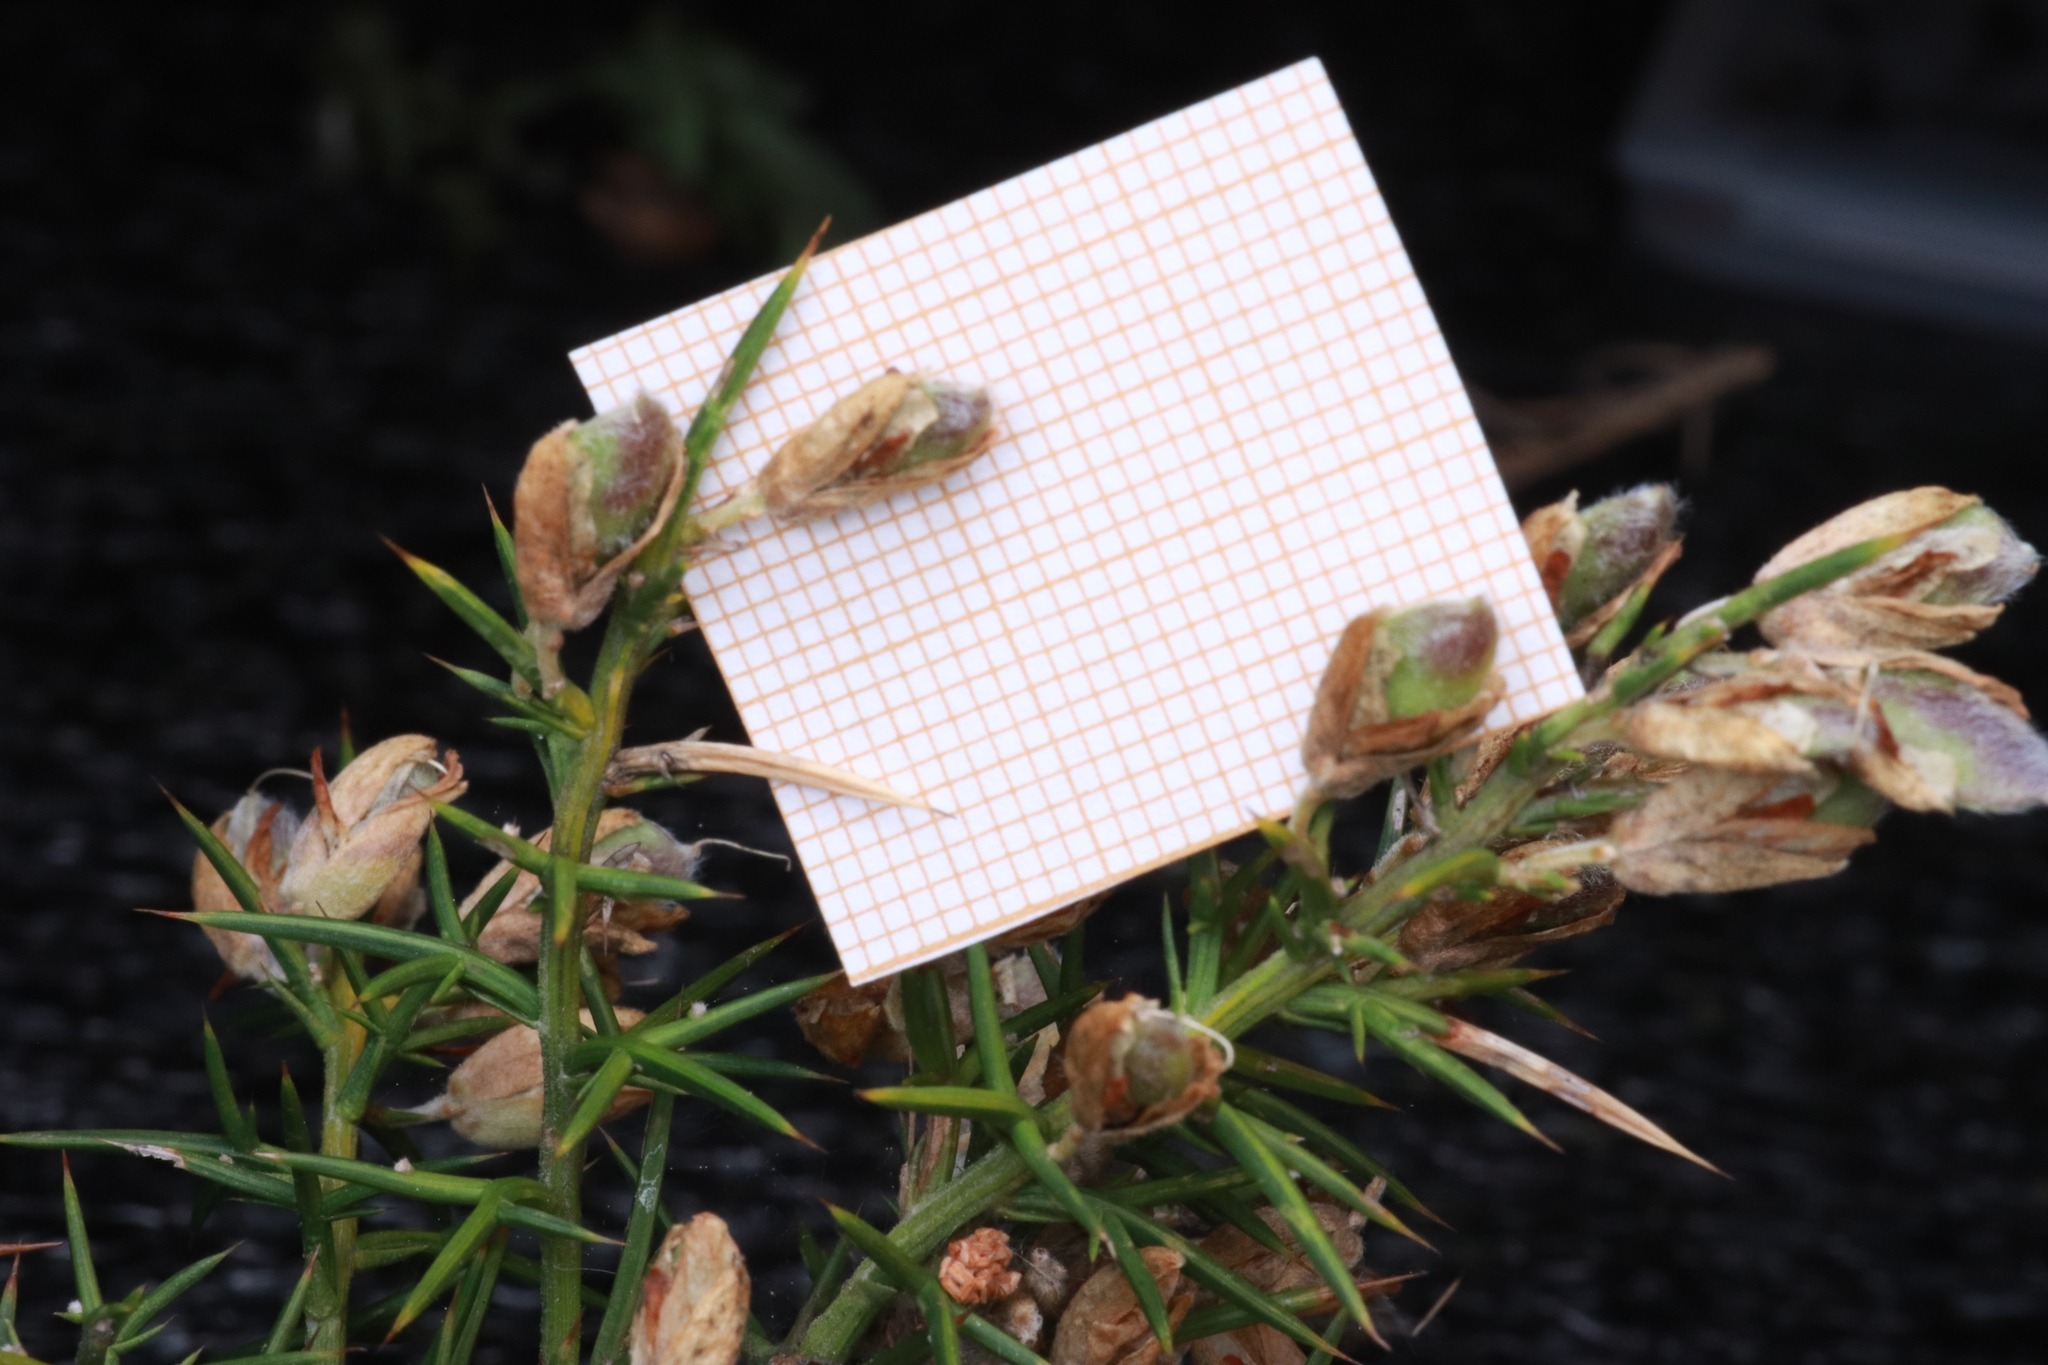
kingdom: Plantae
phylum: Tracheophyta
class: Magnoliopsida
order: Fabales
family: Fabaceae
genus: Ulex
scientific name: Ulex parviflorus
